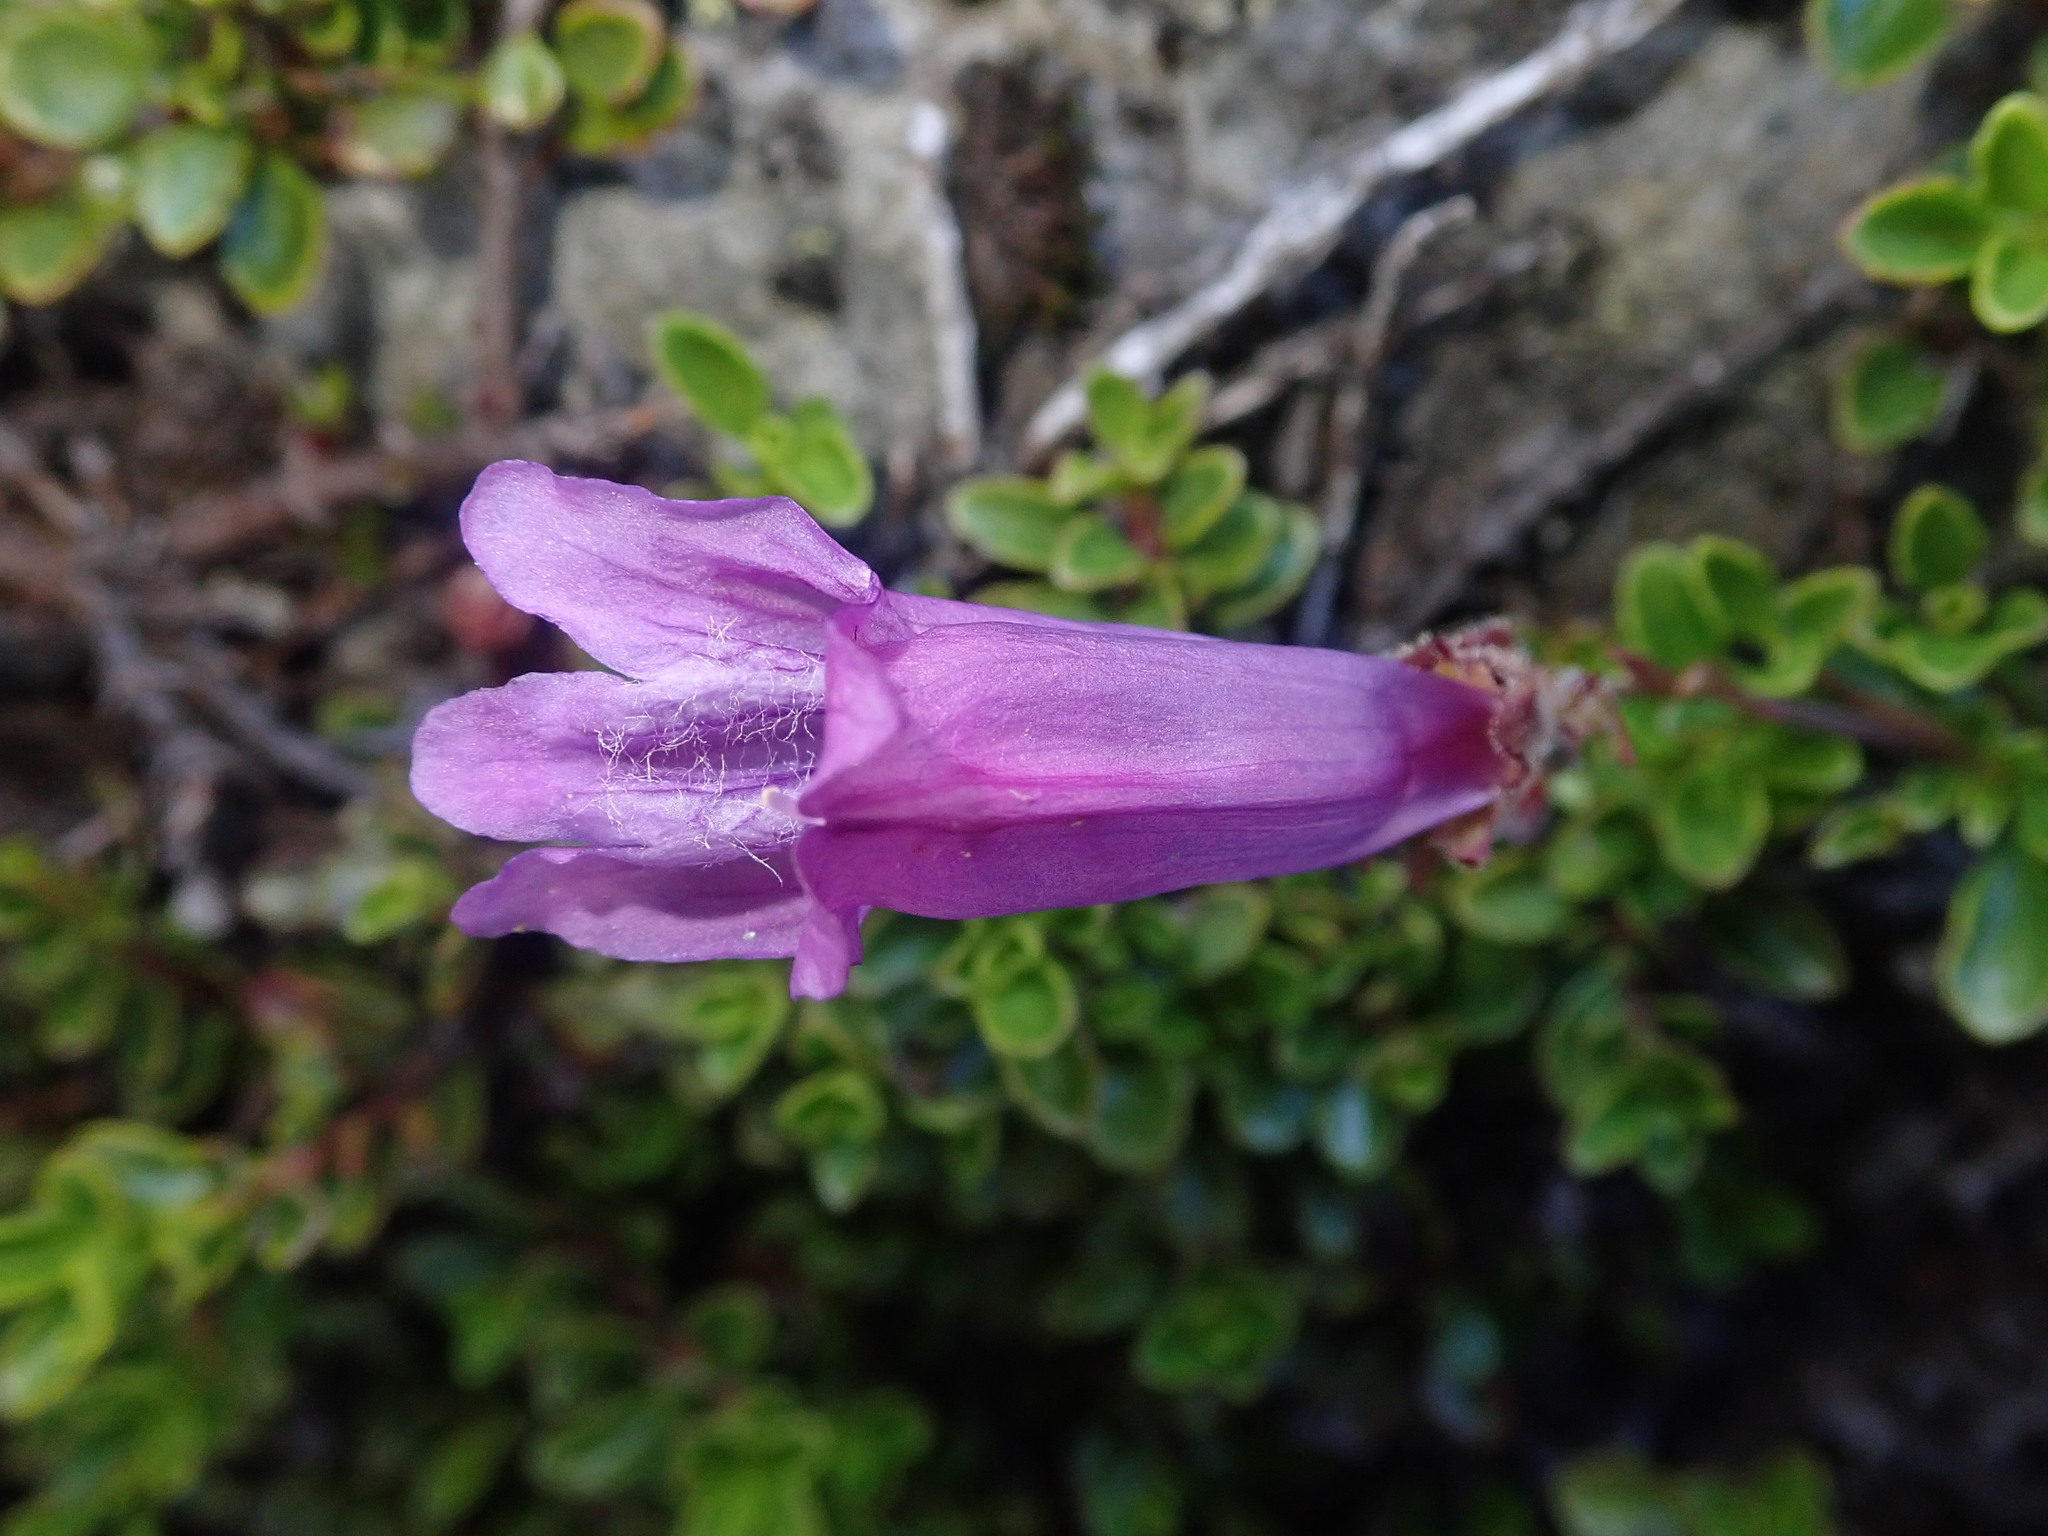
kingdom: Plantae
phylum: Tracheophyta
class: Magnoliopsida
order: Lamiales
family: Plantaginaceae
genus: Penstemon
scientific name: Penstemon davidsonii
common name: Davidson's penstemon
